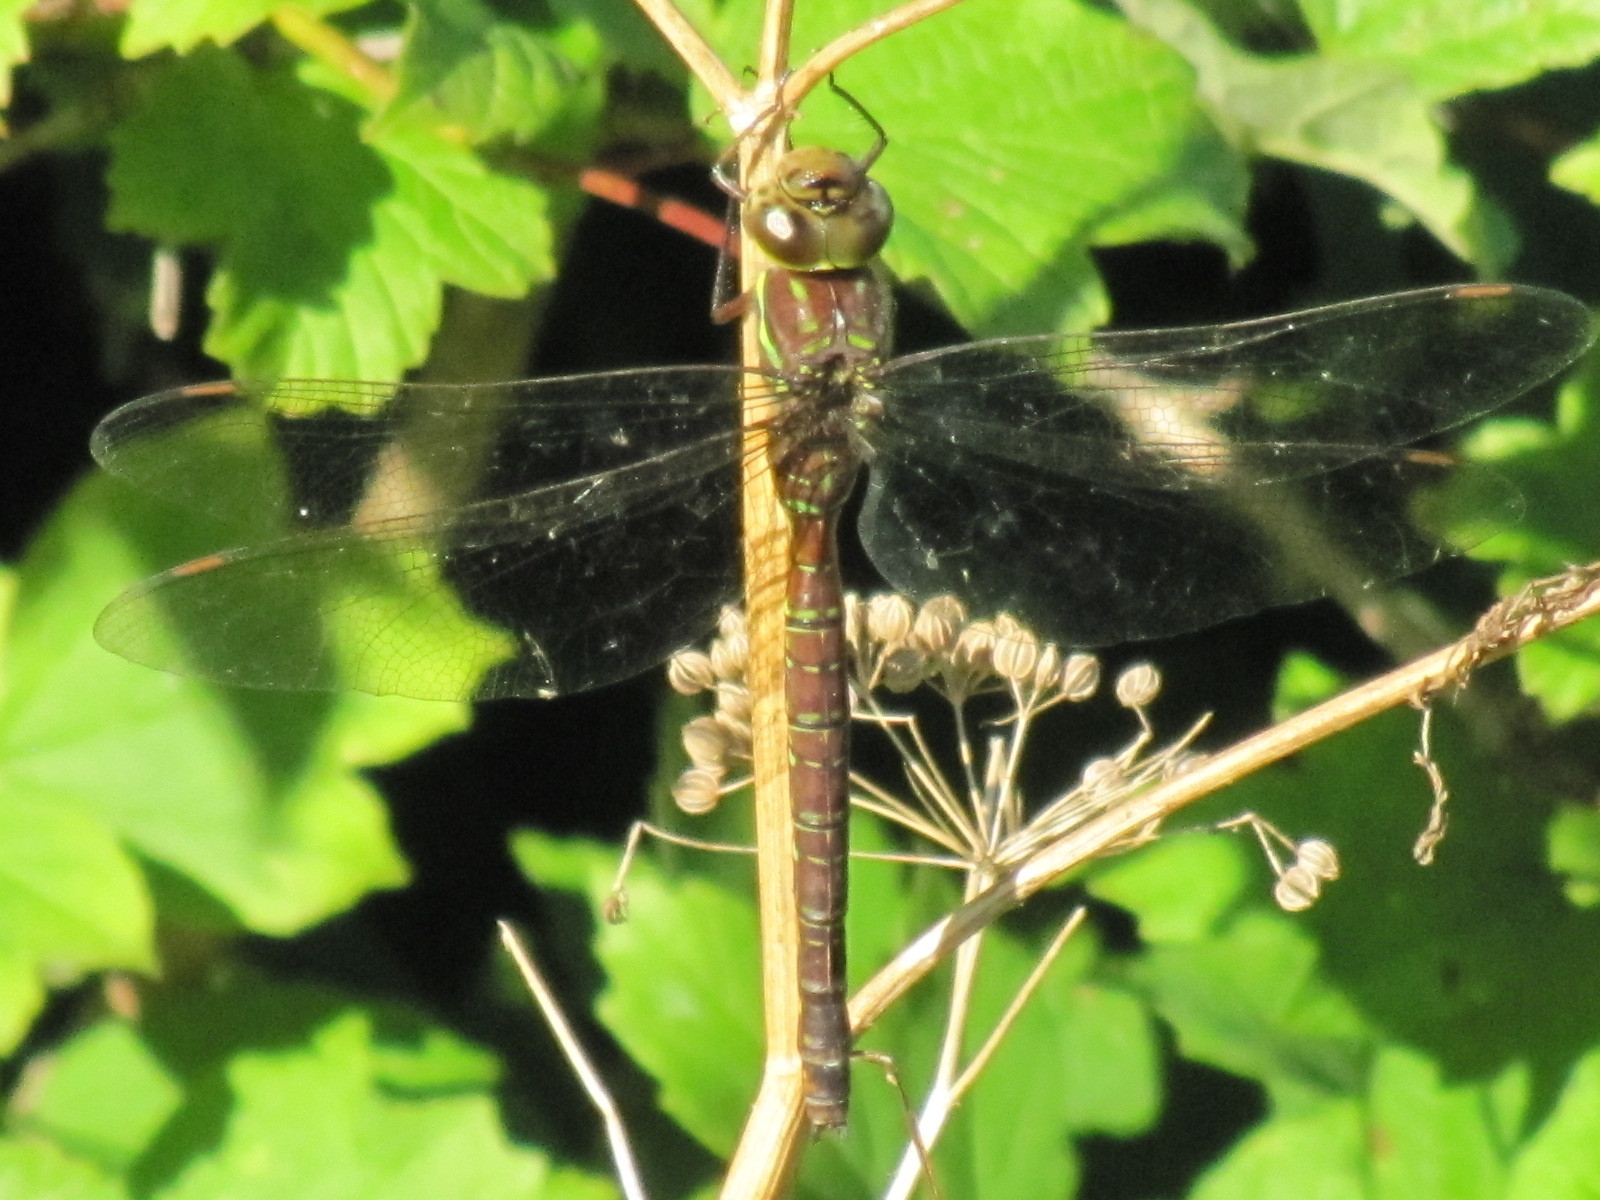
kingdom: Animalia
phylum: Arthropoda
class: Insecta
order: Odonata
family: Aeshnidae
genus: Aeshna
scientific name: Aeshna umbrosa
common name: Shadow darner
